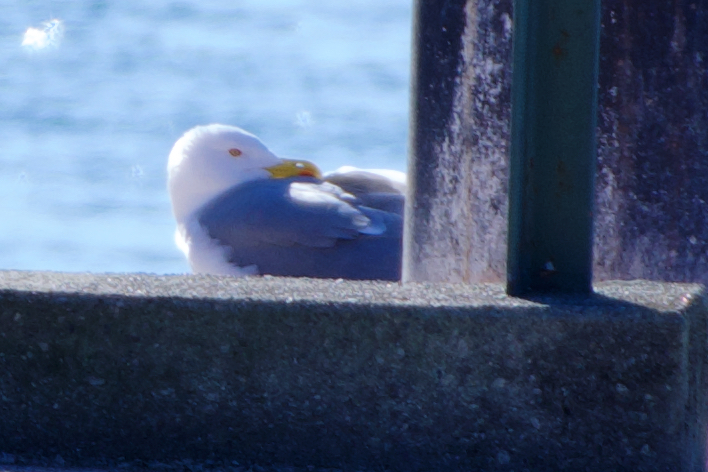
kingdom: Animalia
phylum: Chordata
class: Aves
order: Charadriiformes
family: Laridae
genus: Larus
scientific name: Larus michahellis
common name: Yellow-legged gull
